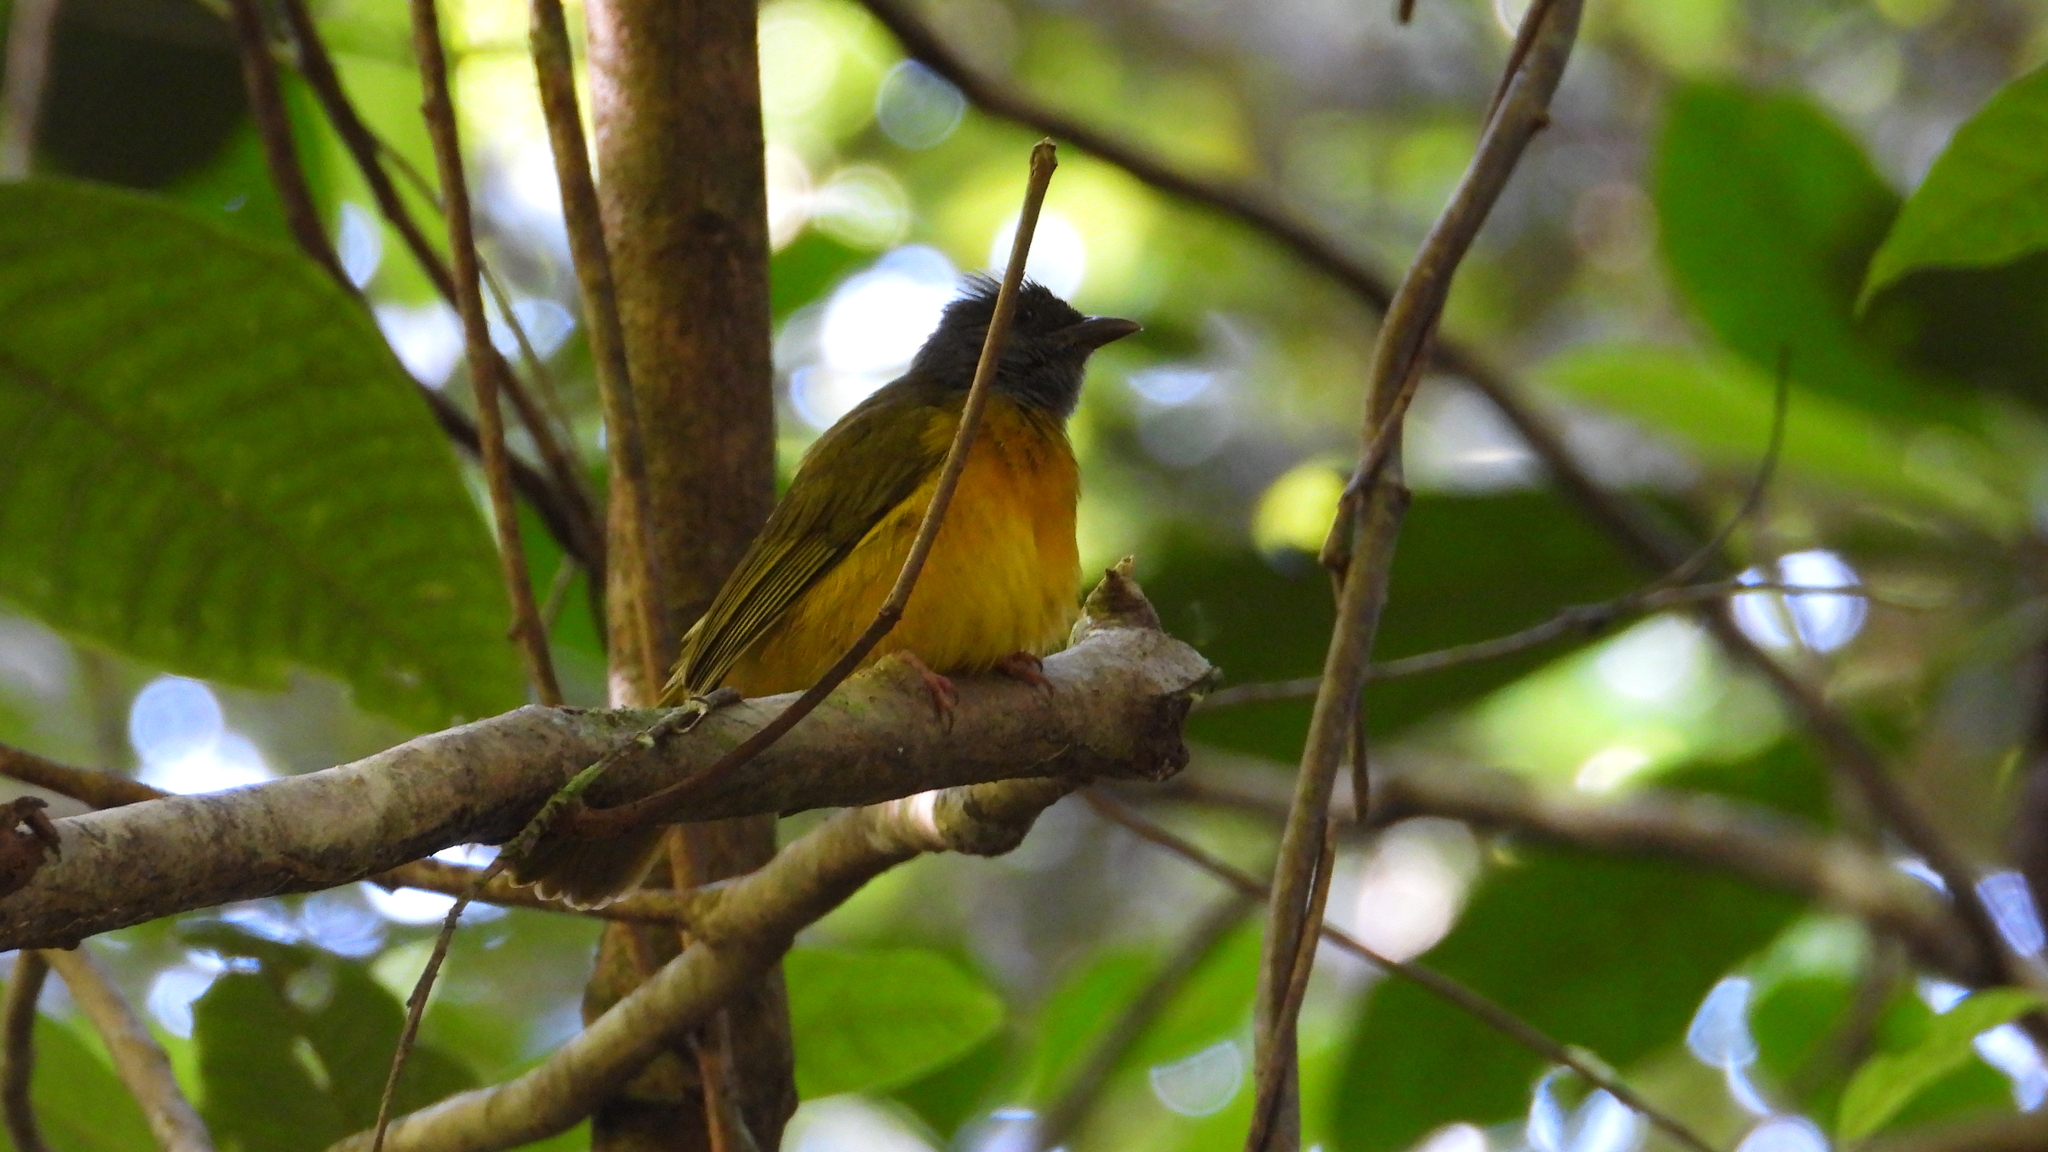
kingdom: Animalia
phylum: Chordata
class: Aves
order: Passeriformes
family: Thraupidae
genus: Eucometis
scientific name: Eucometis penicillata
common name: Grey-headed tanager
